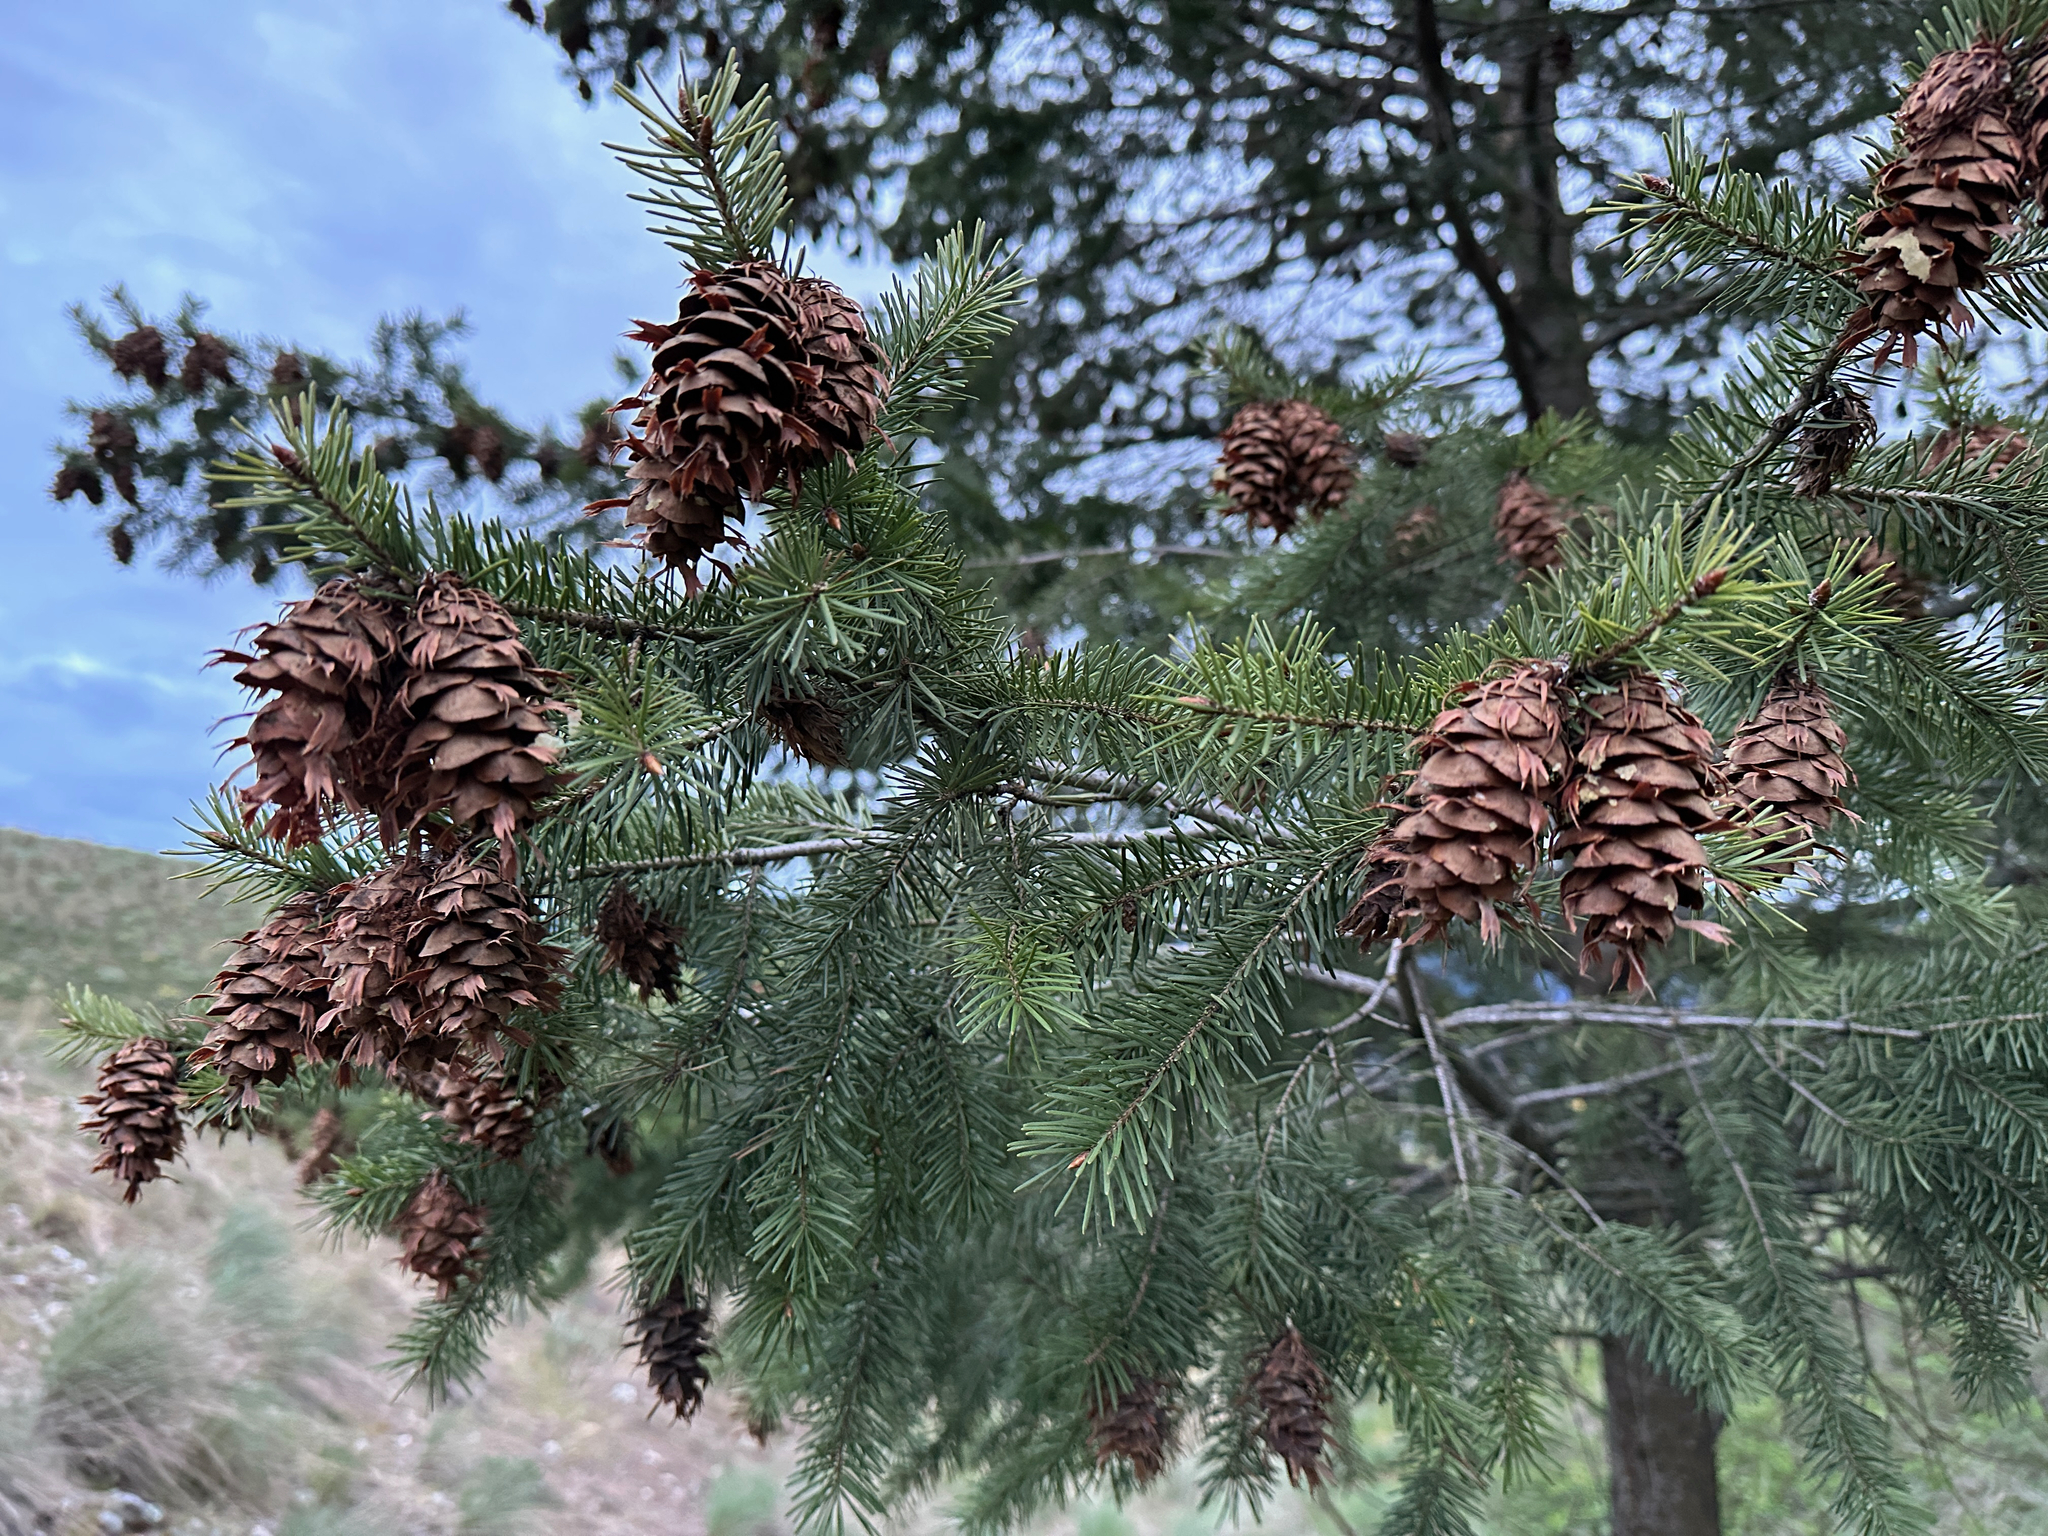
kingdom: Plantae
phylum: Tracheophyta
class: Pinopsida
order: Pinales
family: Pinaceae
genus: Pseudotsuga
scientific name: Pseudotsuga menziesii
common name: Douglas fir
